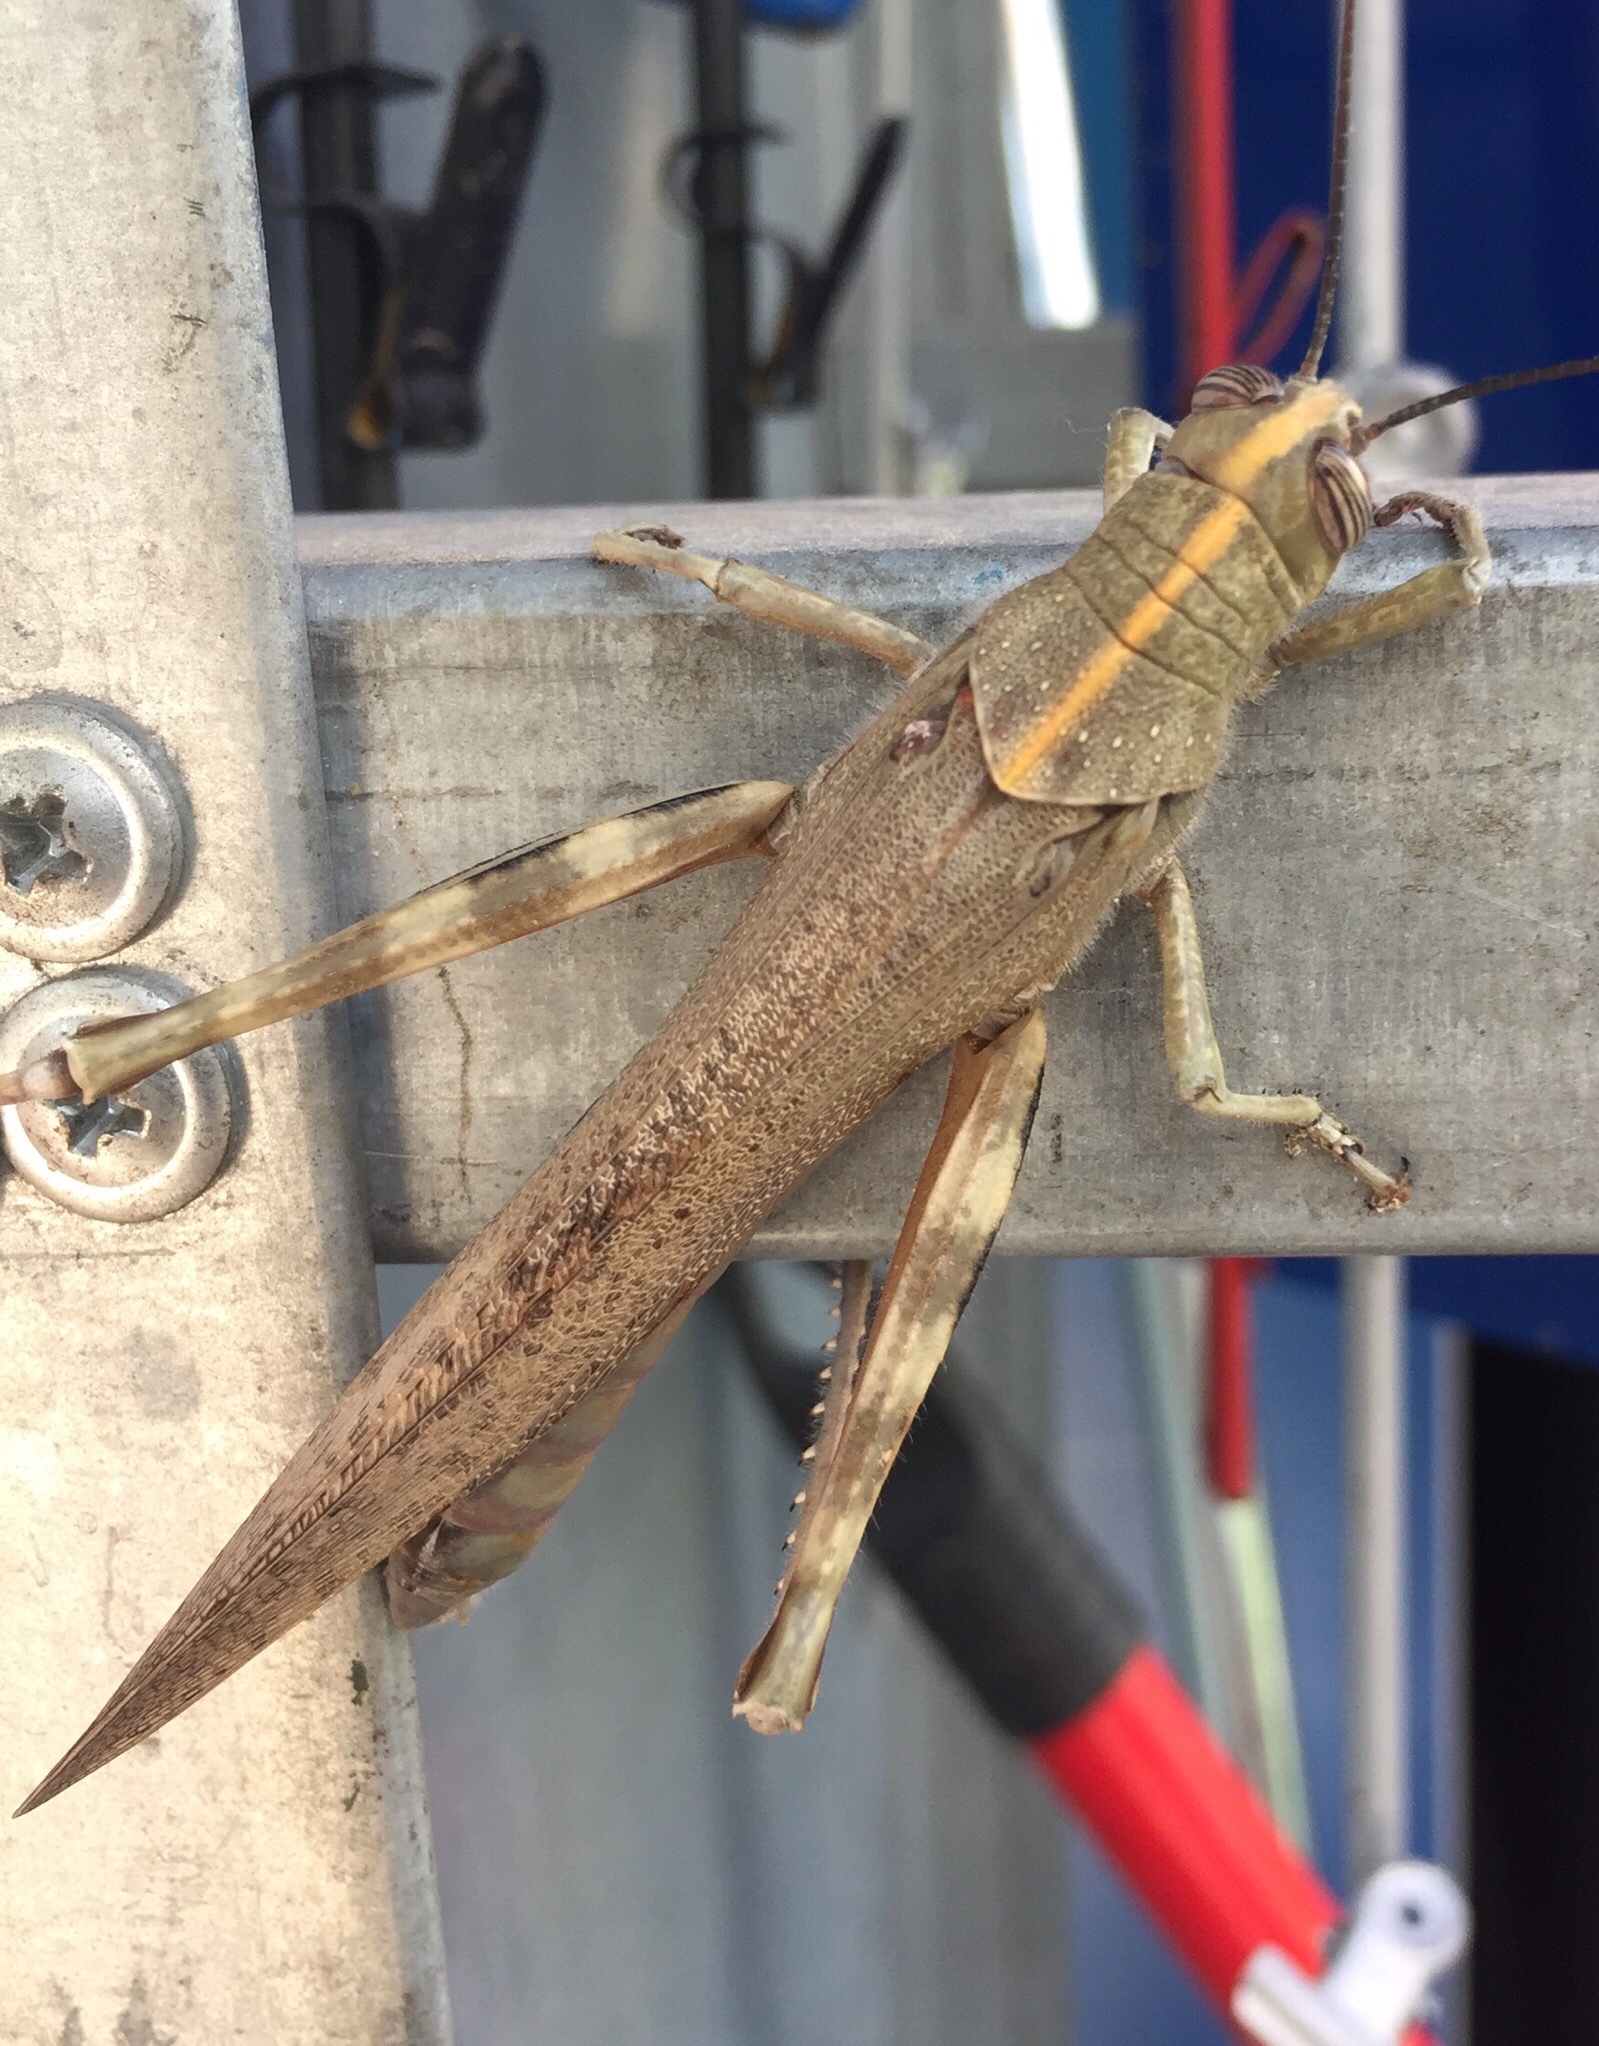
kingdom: Animalia
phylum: Arthropoda
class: Insecta
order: Orthoptera
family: Acrididae
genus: Anacridium
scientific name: Anacridium aegyptium
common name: Egyptian grasshopper
